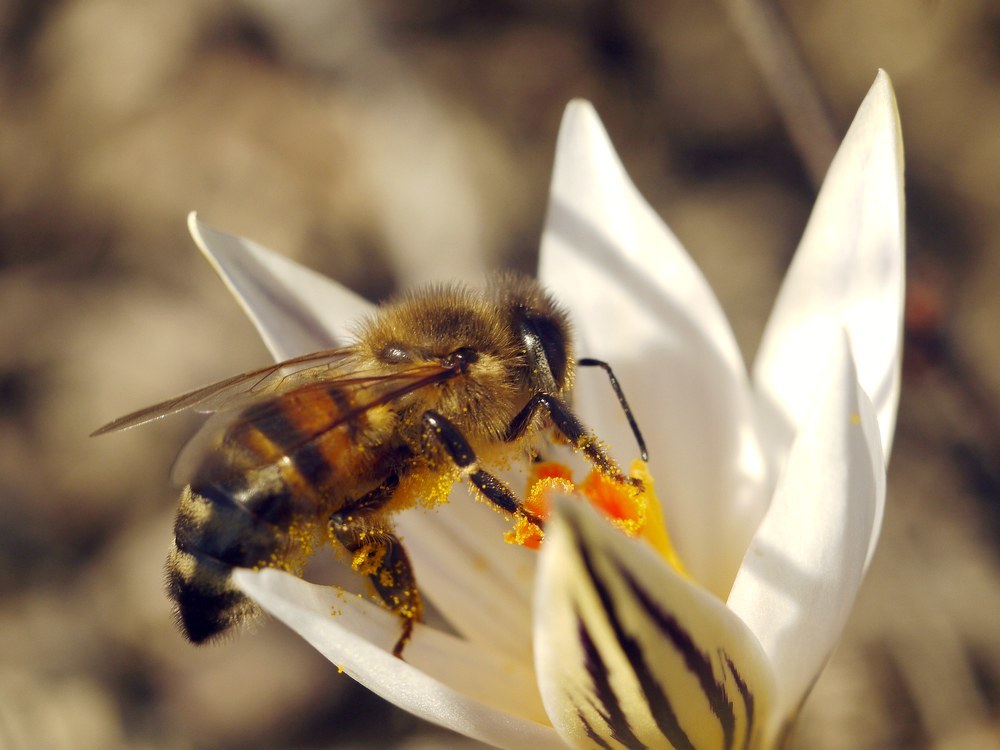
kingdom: Animalia
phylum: Arthropoda
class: Insecta
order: Hymenoptera
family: Apidae
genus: Apis
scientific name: Apis mellifera
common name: Honey bee
